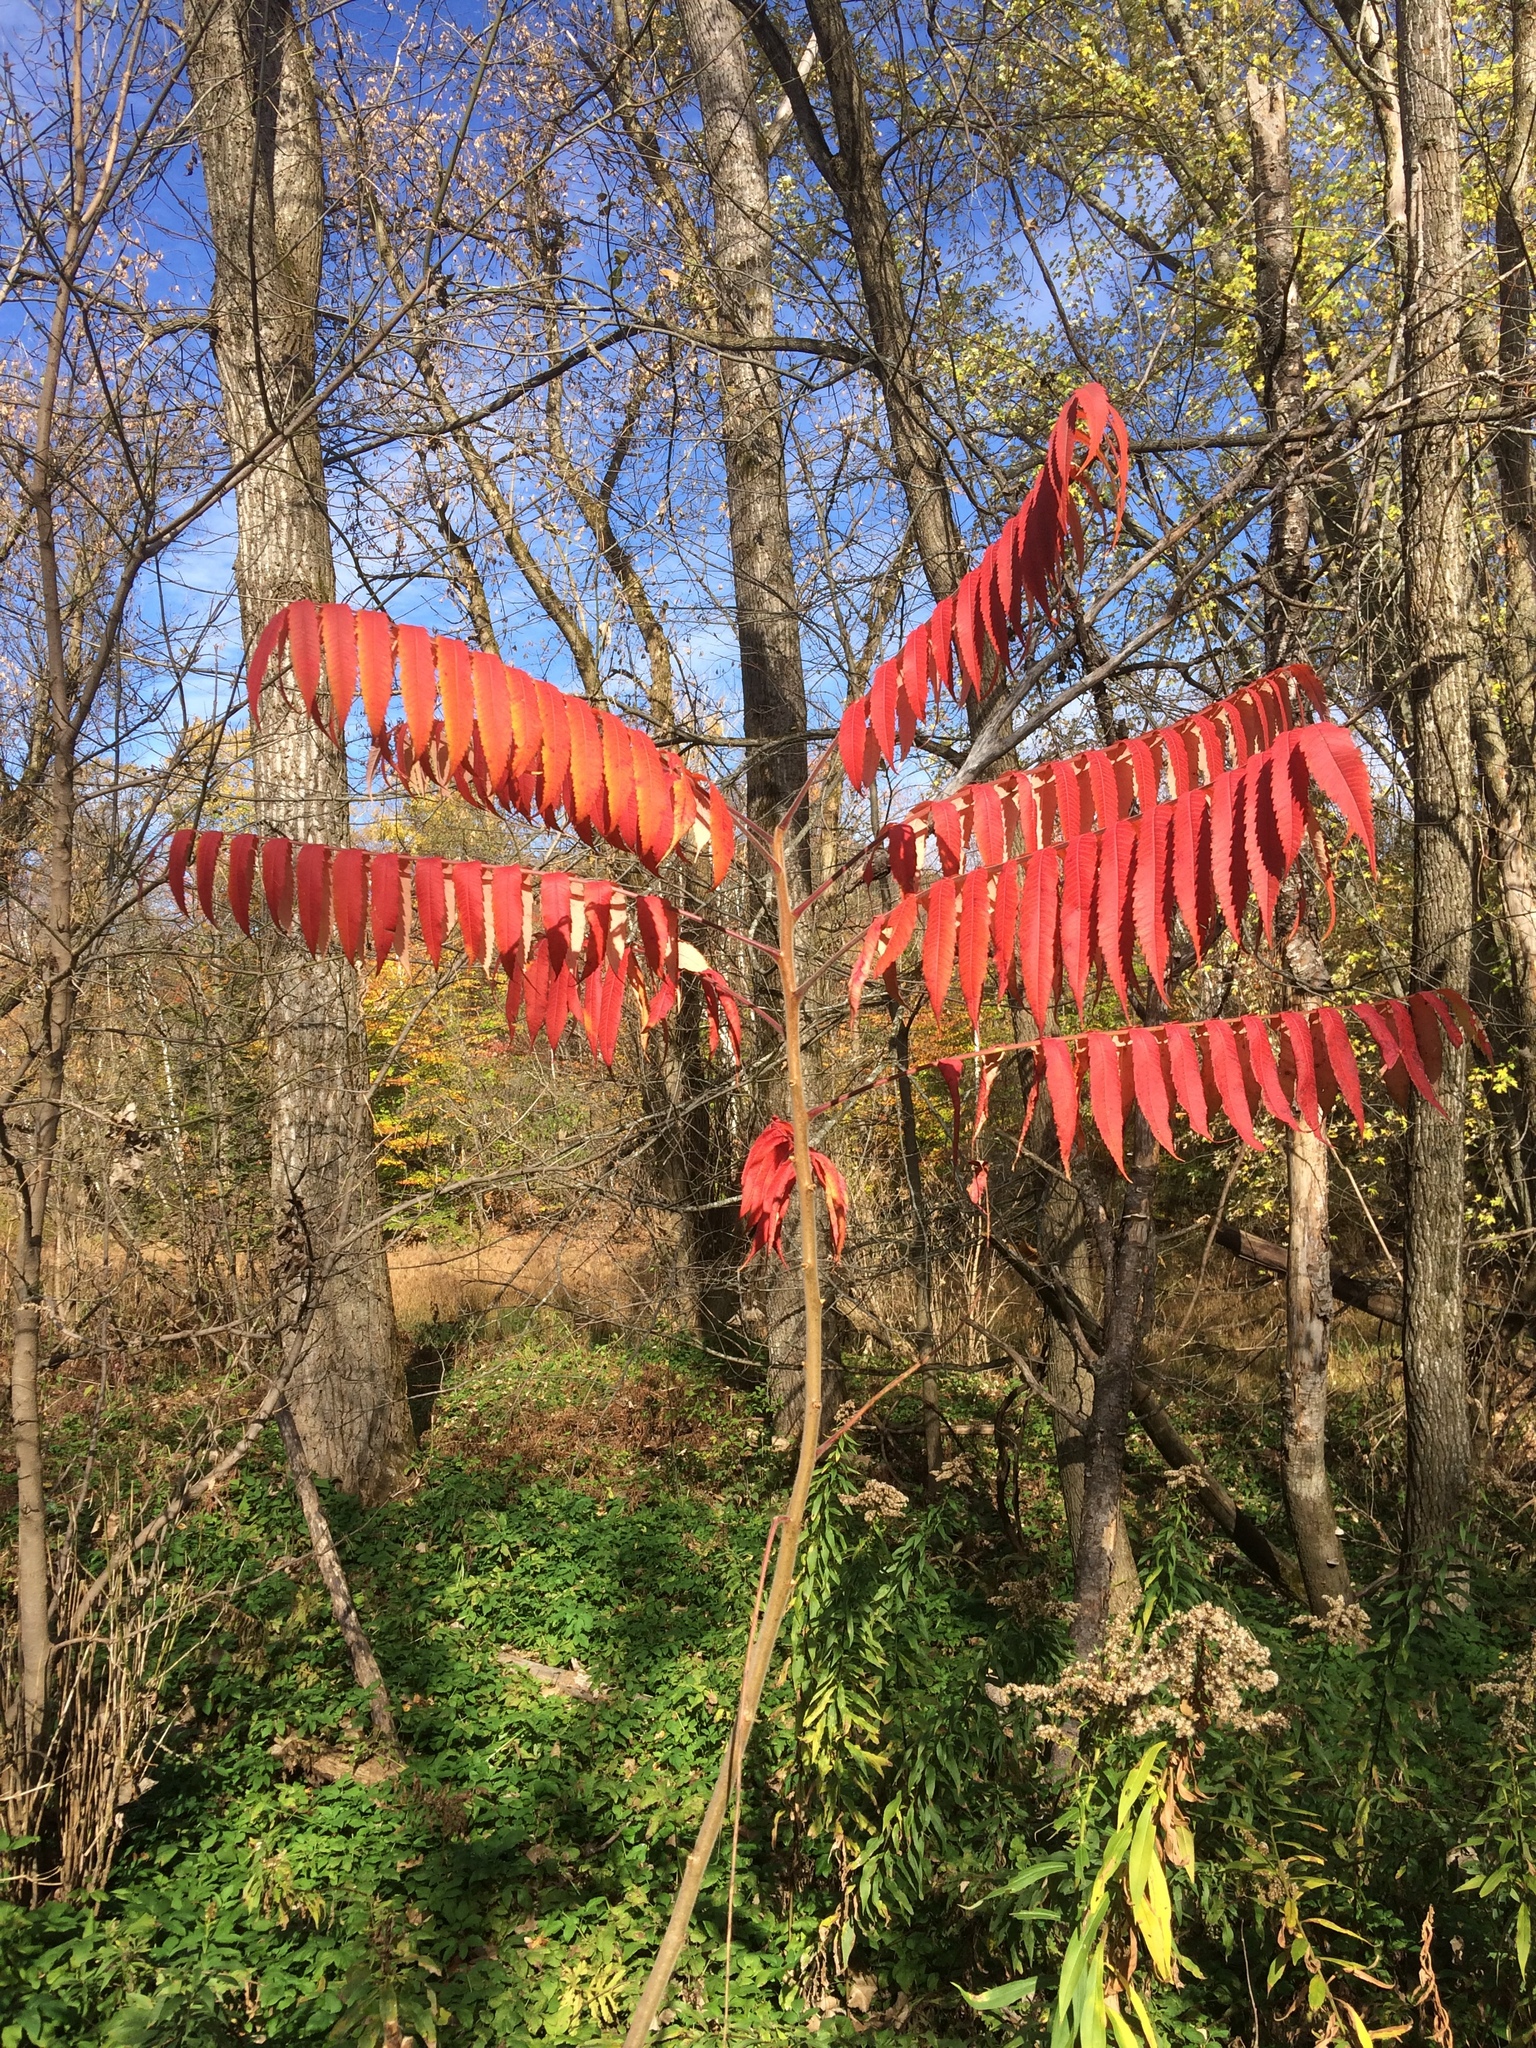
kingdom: Plantae
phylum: Tracheophyta
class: Magnoliopsida
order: Sapindales
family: Anacardiaceae
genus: Rhus
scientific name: Rhus typhina
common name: Staghorn sumac
